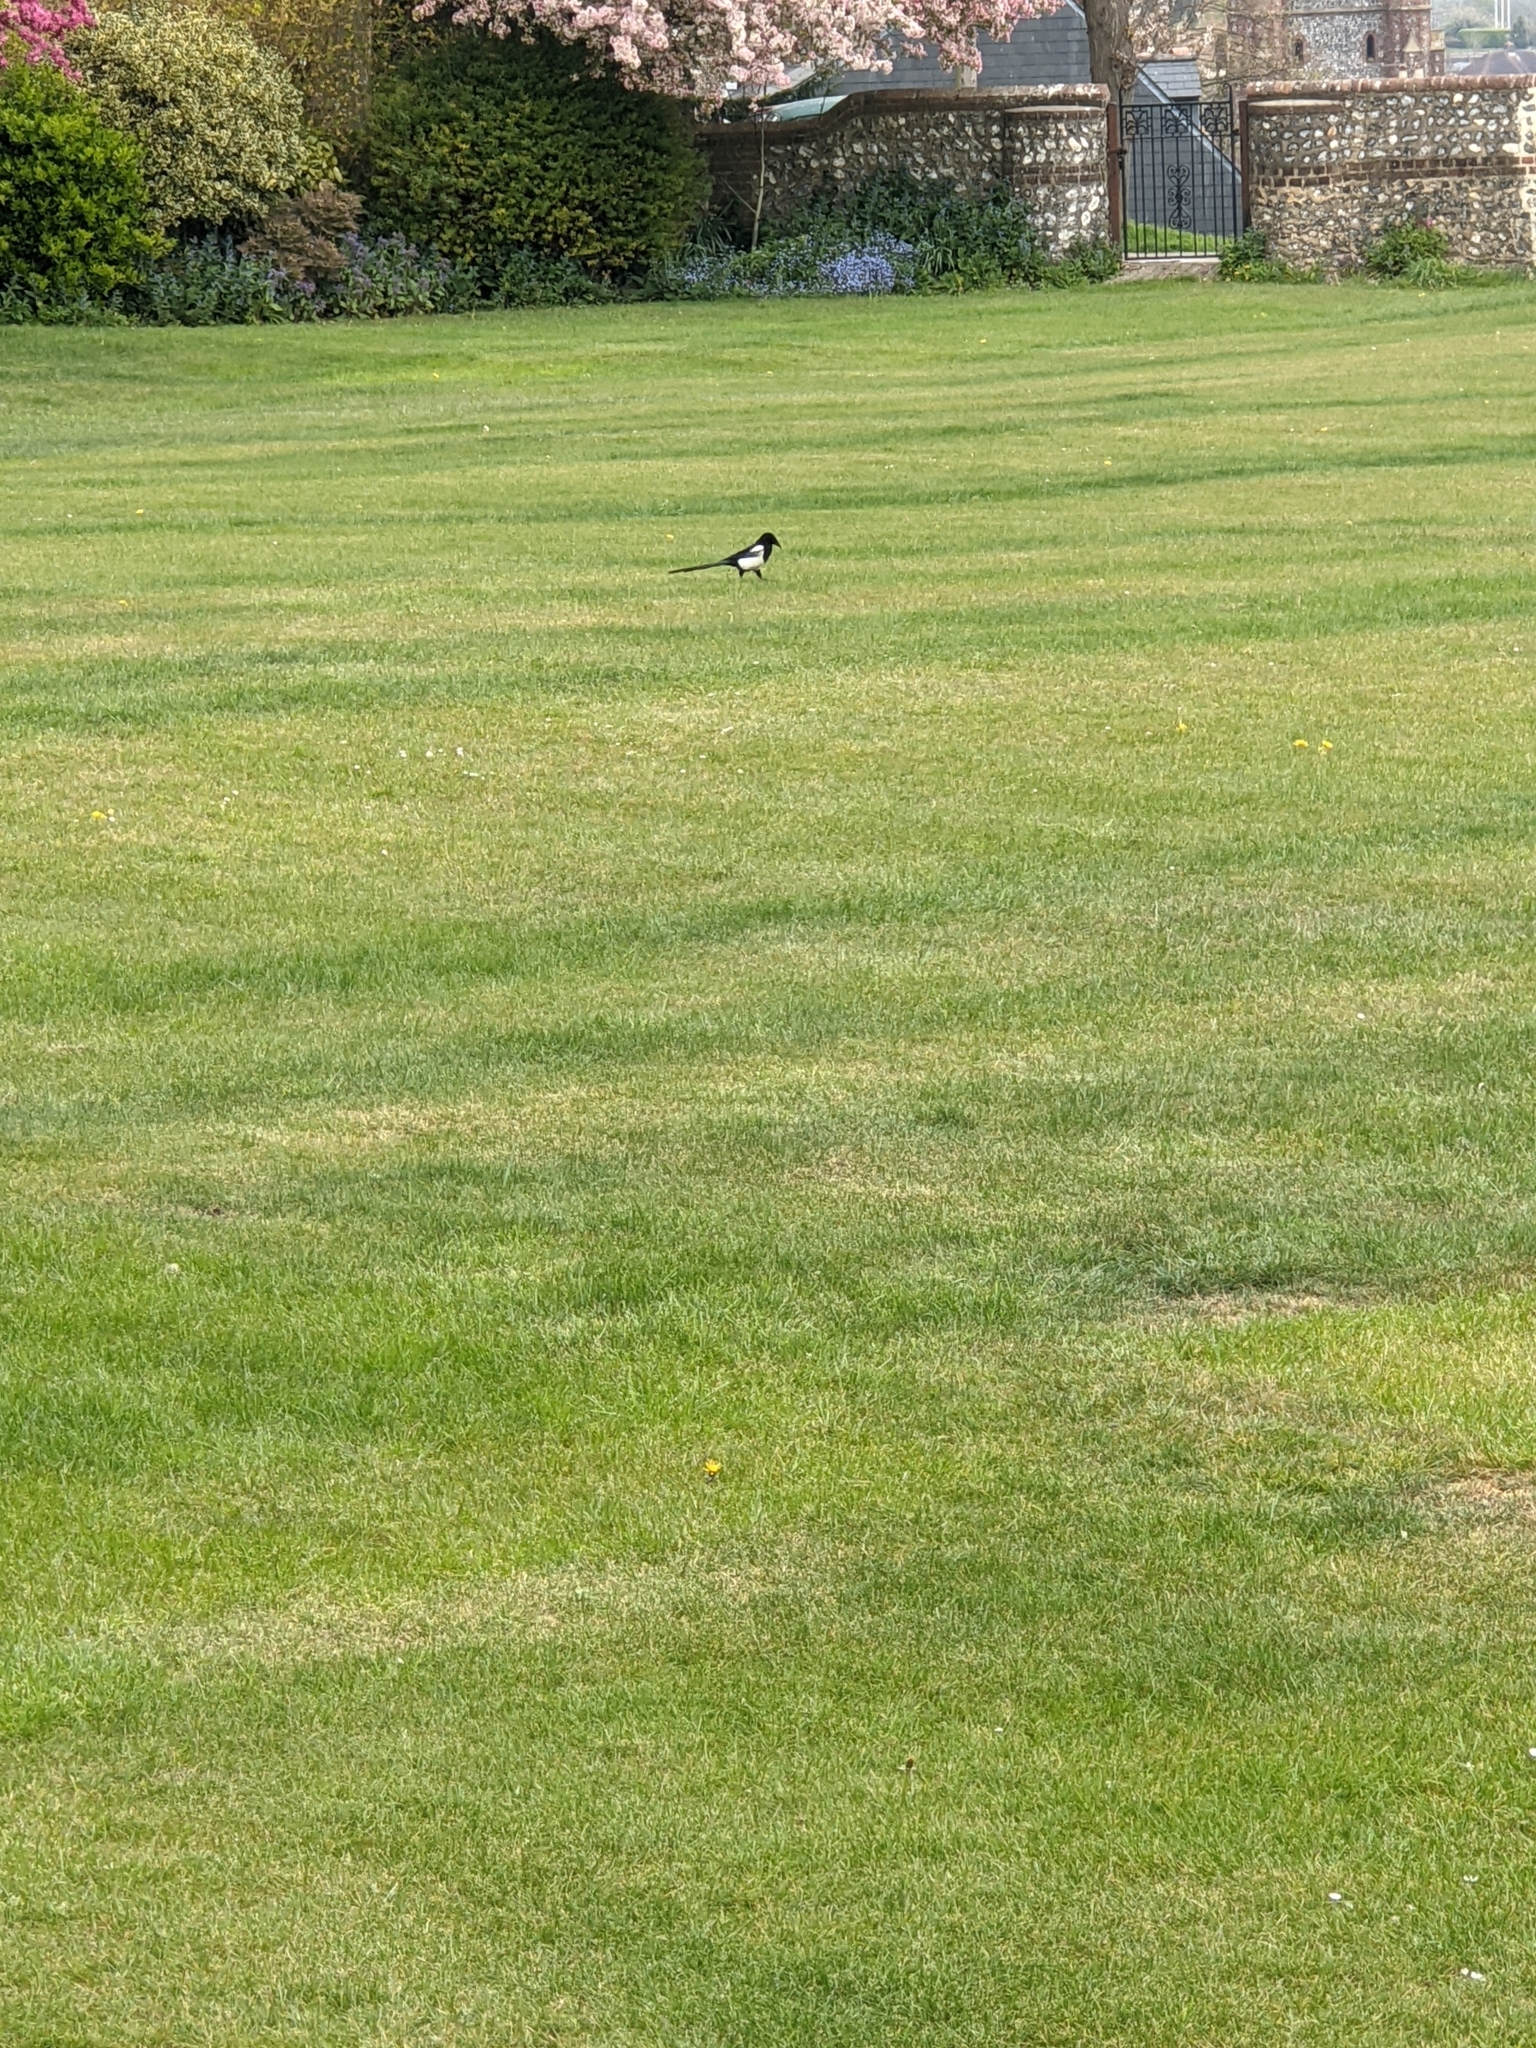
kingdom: Animalia
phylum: Chordata
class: Aves
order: Passeriformes
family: Corvidae
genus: Pica
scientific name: Pica pica
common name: Eurasian magpie
